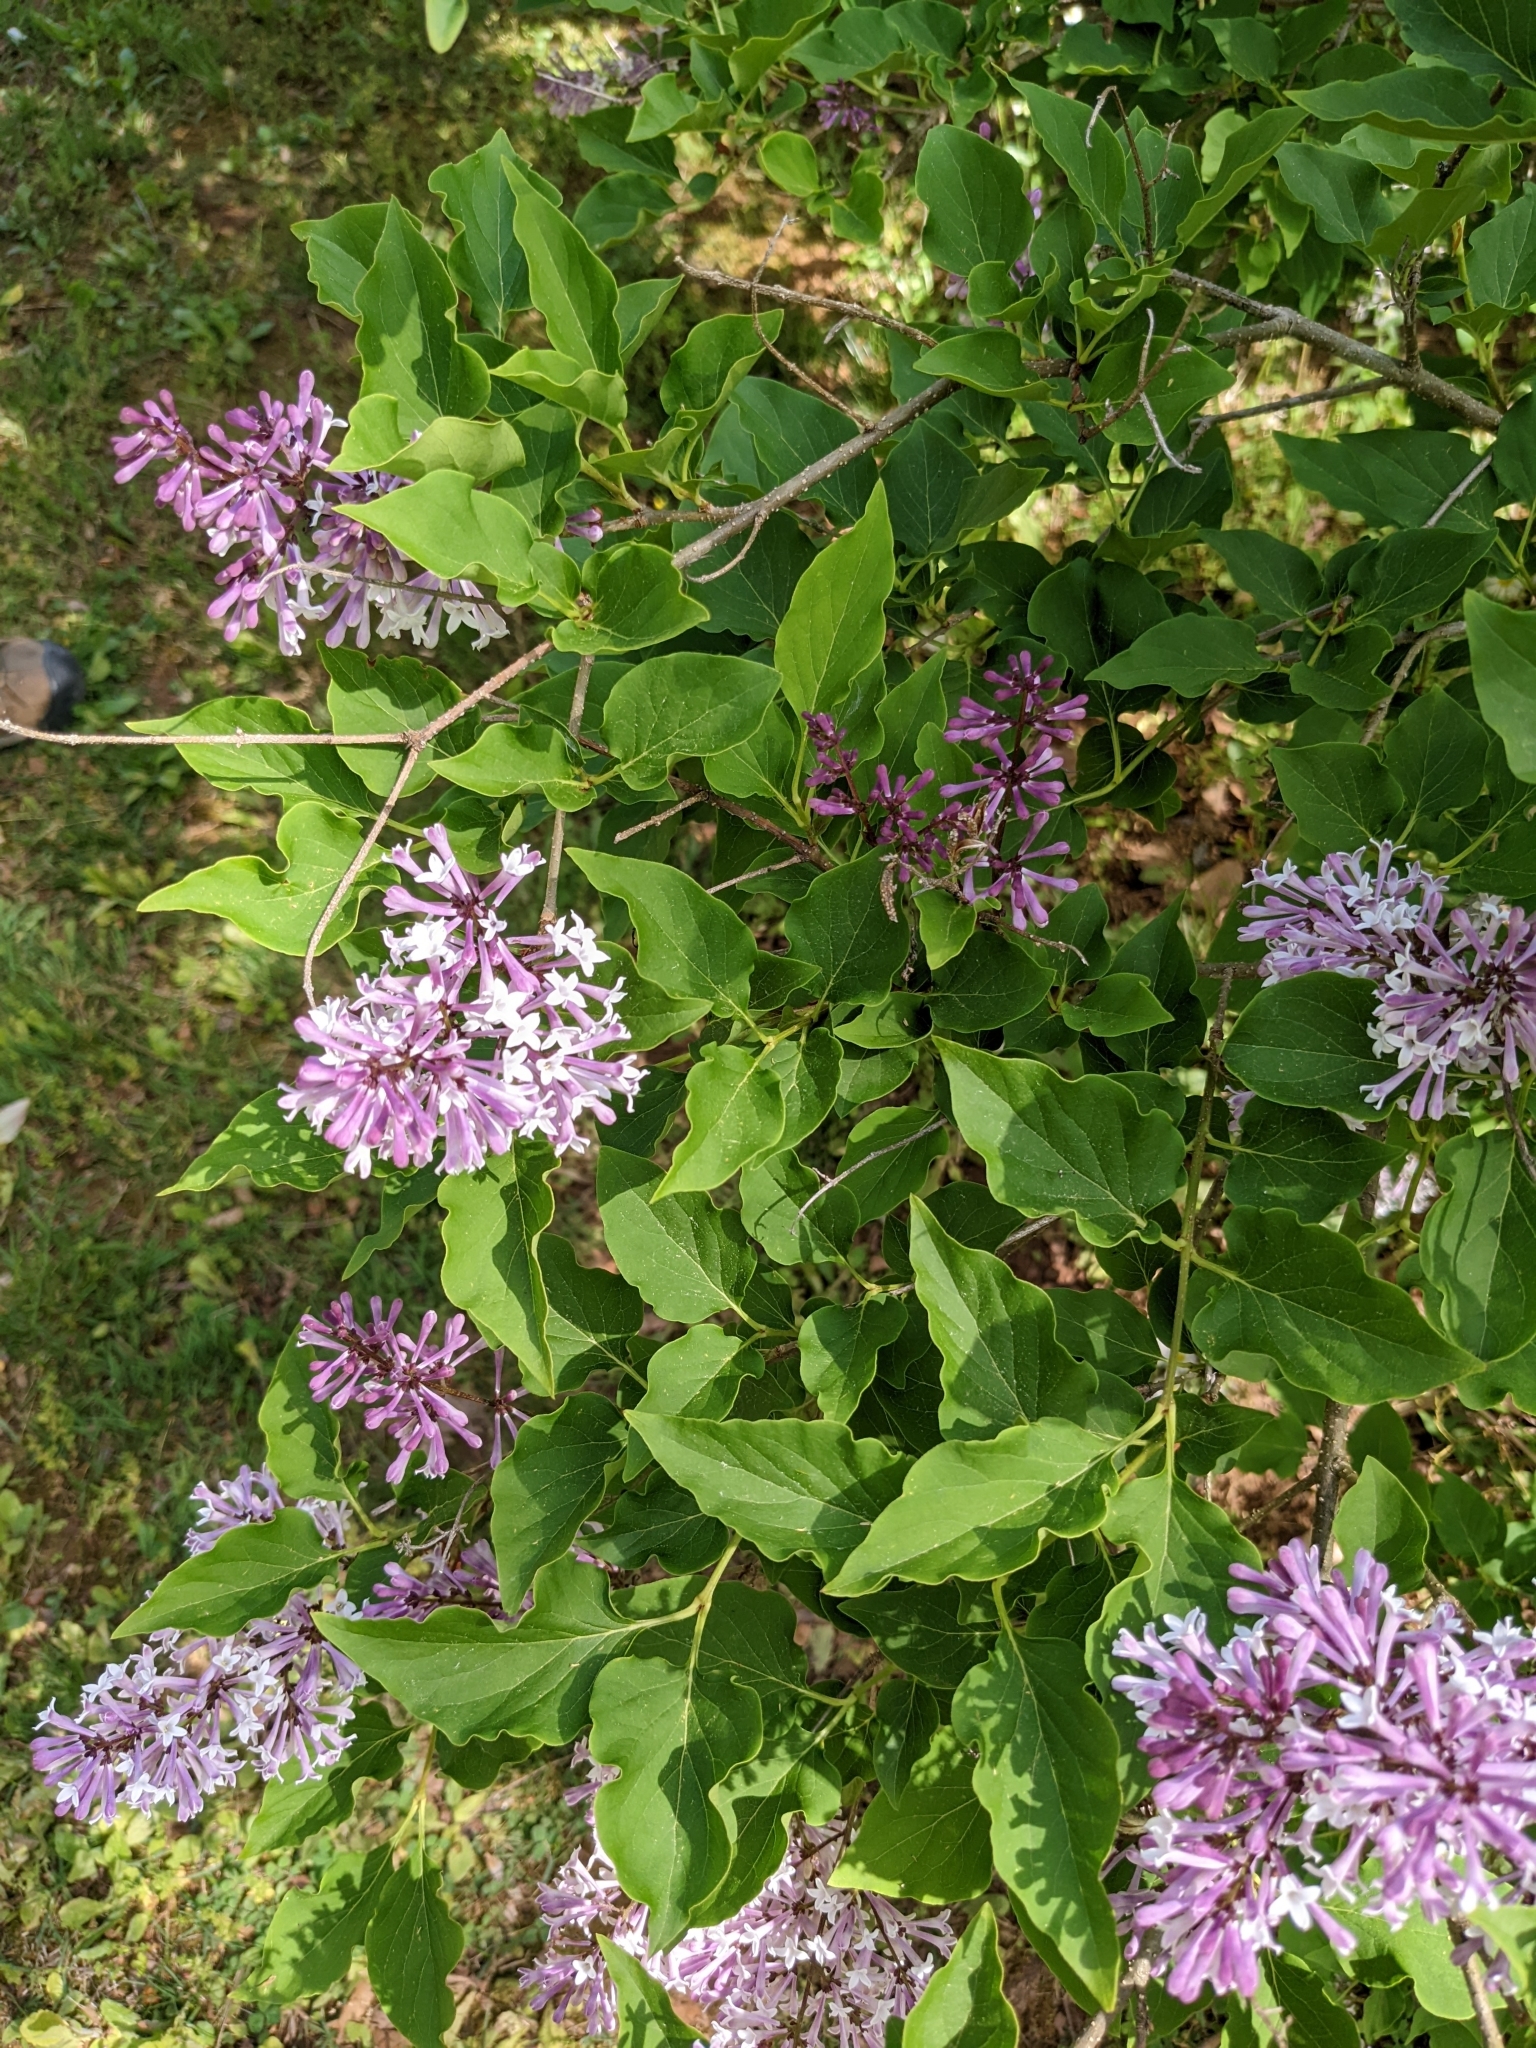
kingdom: Plantae
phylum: Tracheophyta
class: Magnoliopsida
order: Lamiales
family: Oleaceae
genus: Syringa
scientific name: Syringa vulgaris
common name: Common lilac
